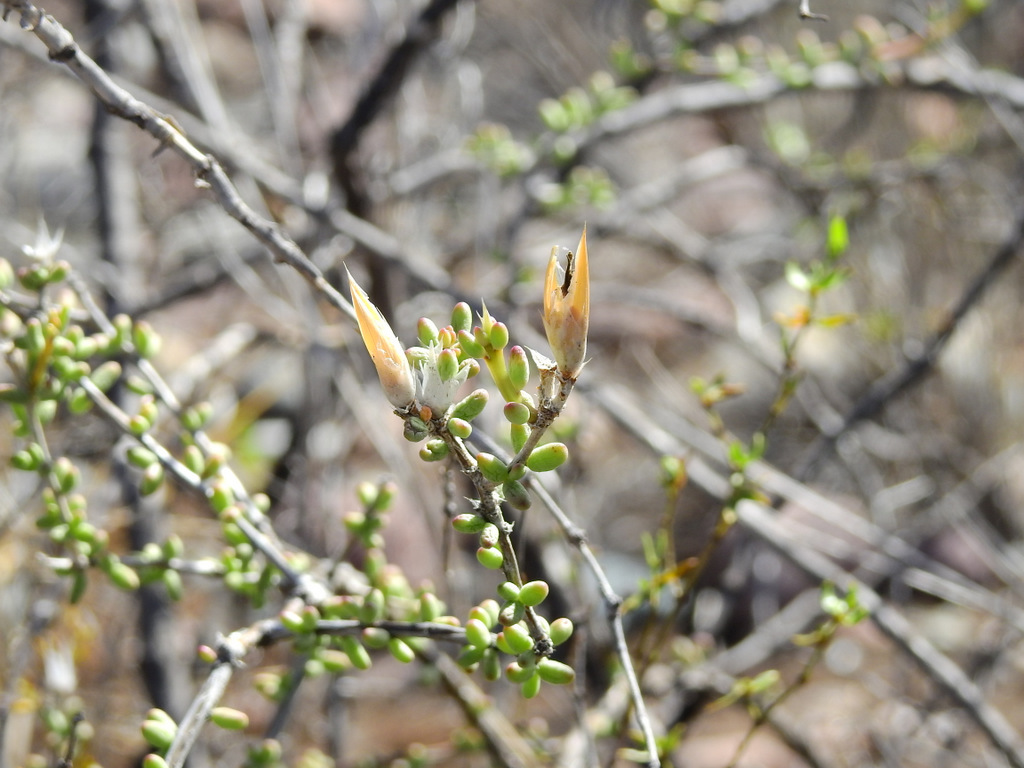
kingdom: Plantae
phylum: Tracheophyta
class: Magnoliopsida
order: Caryophyllales
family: Anacampserotaceae
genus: Grahamia
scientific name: Grahamia bracteata
